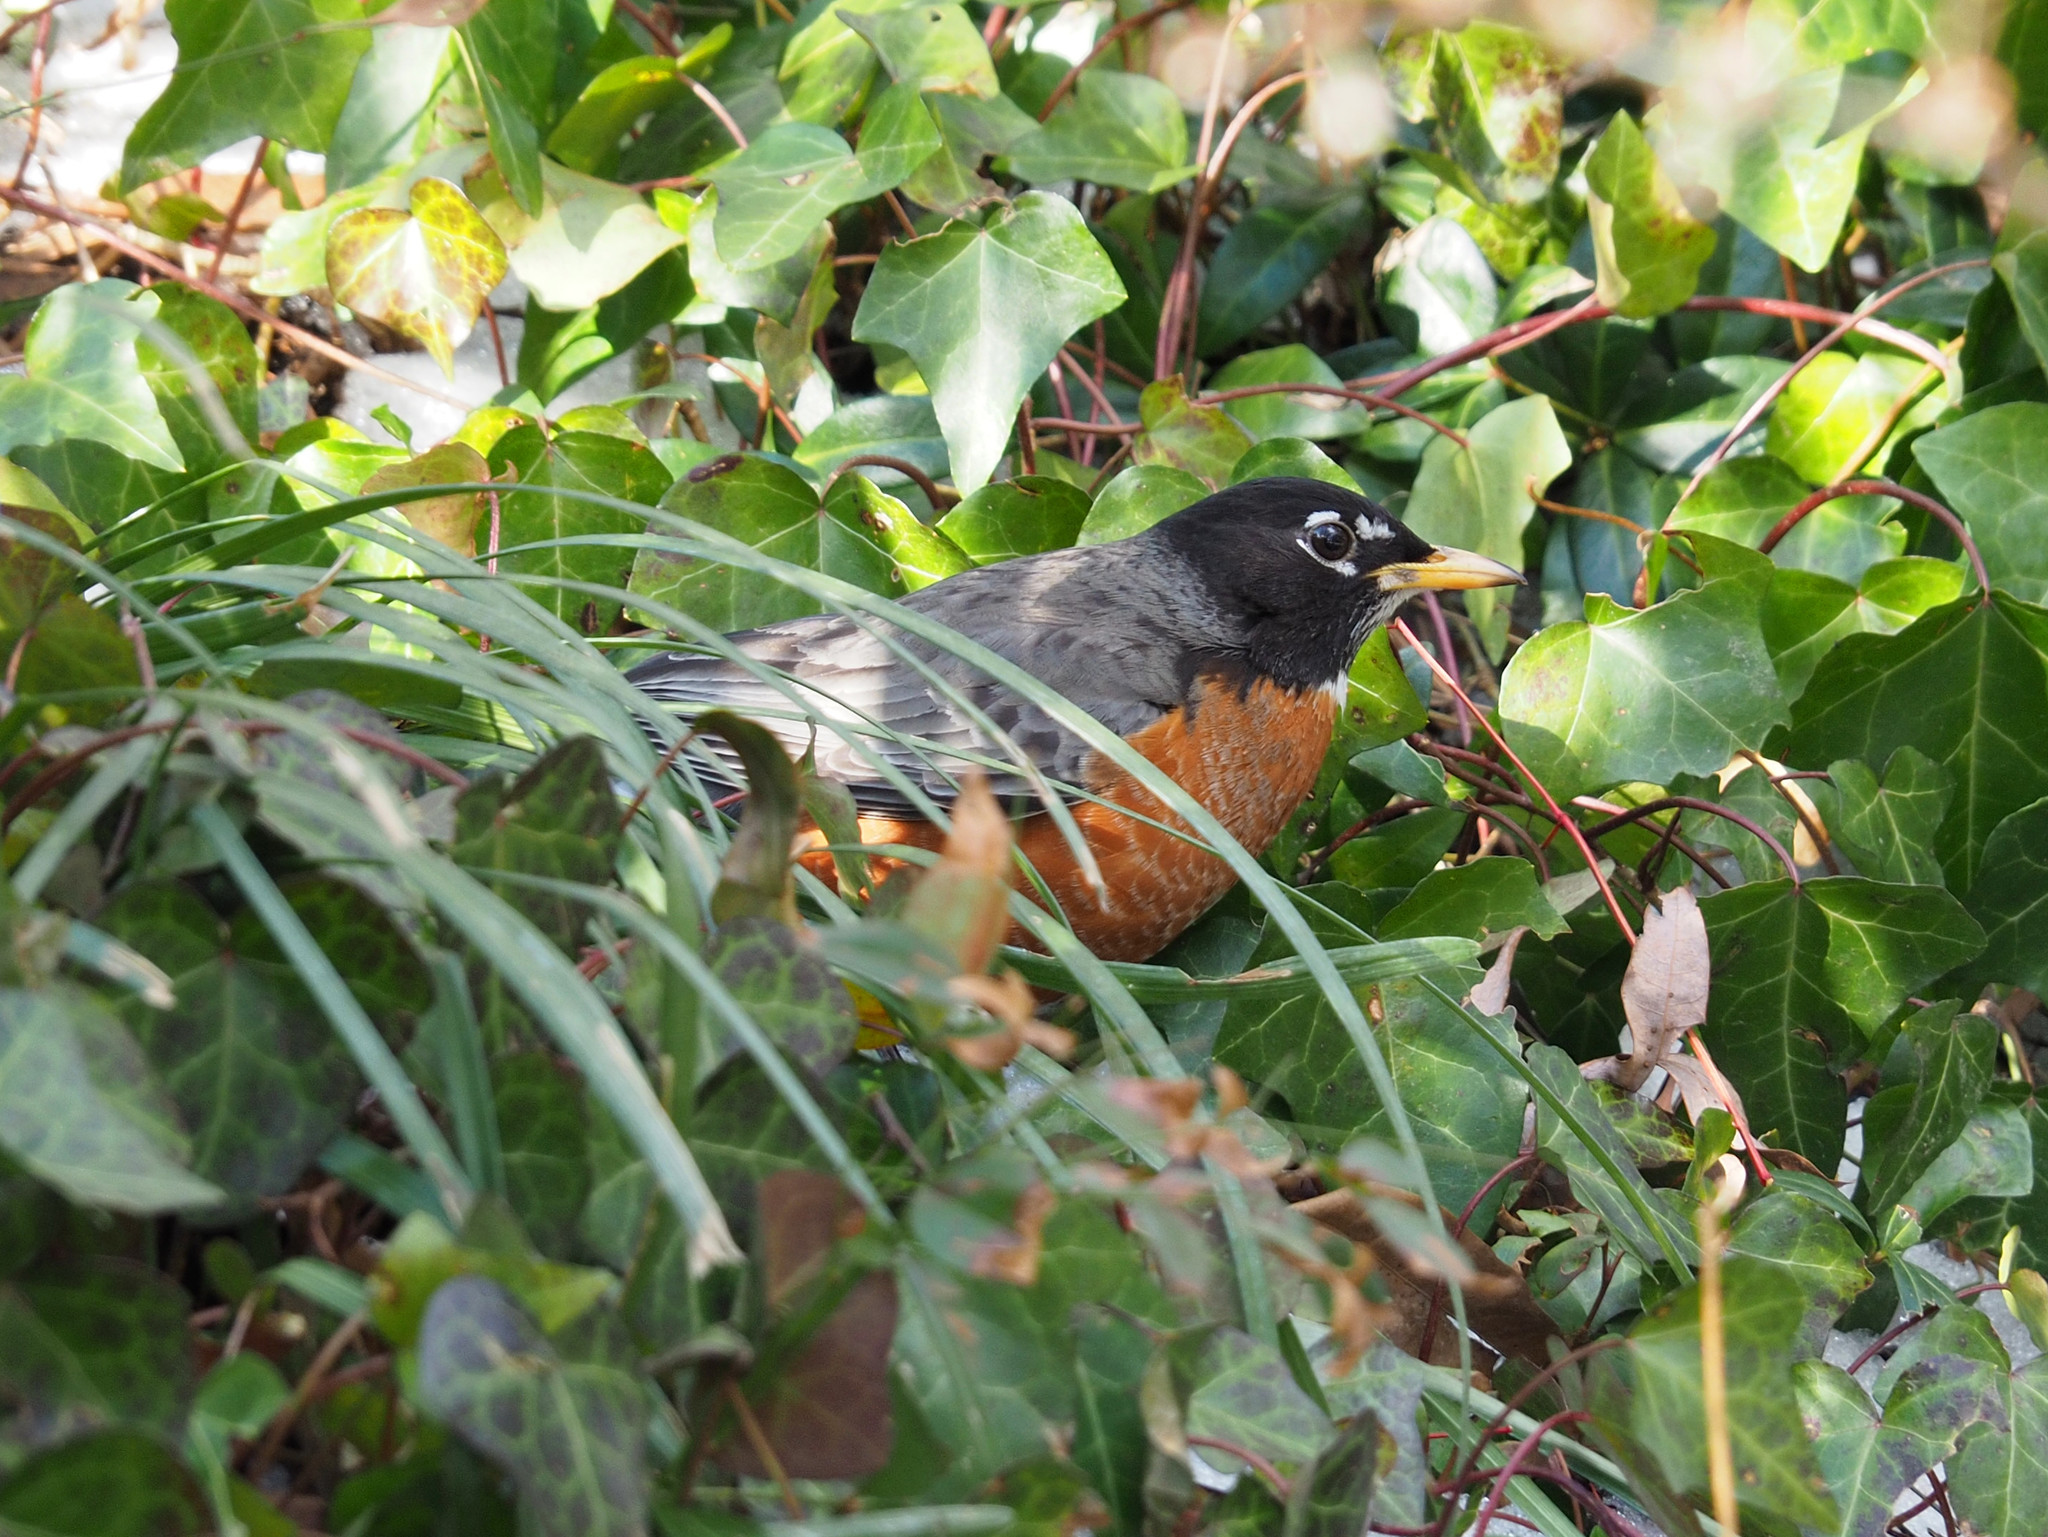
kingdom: Animalia
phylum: Chordata
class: Aves
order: Passeriformes
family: Turdidae
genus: Turdus
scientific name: Turdus migratorius
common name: American robin
